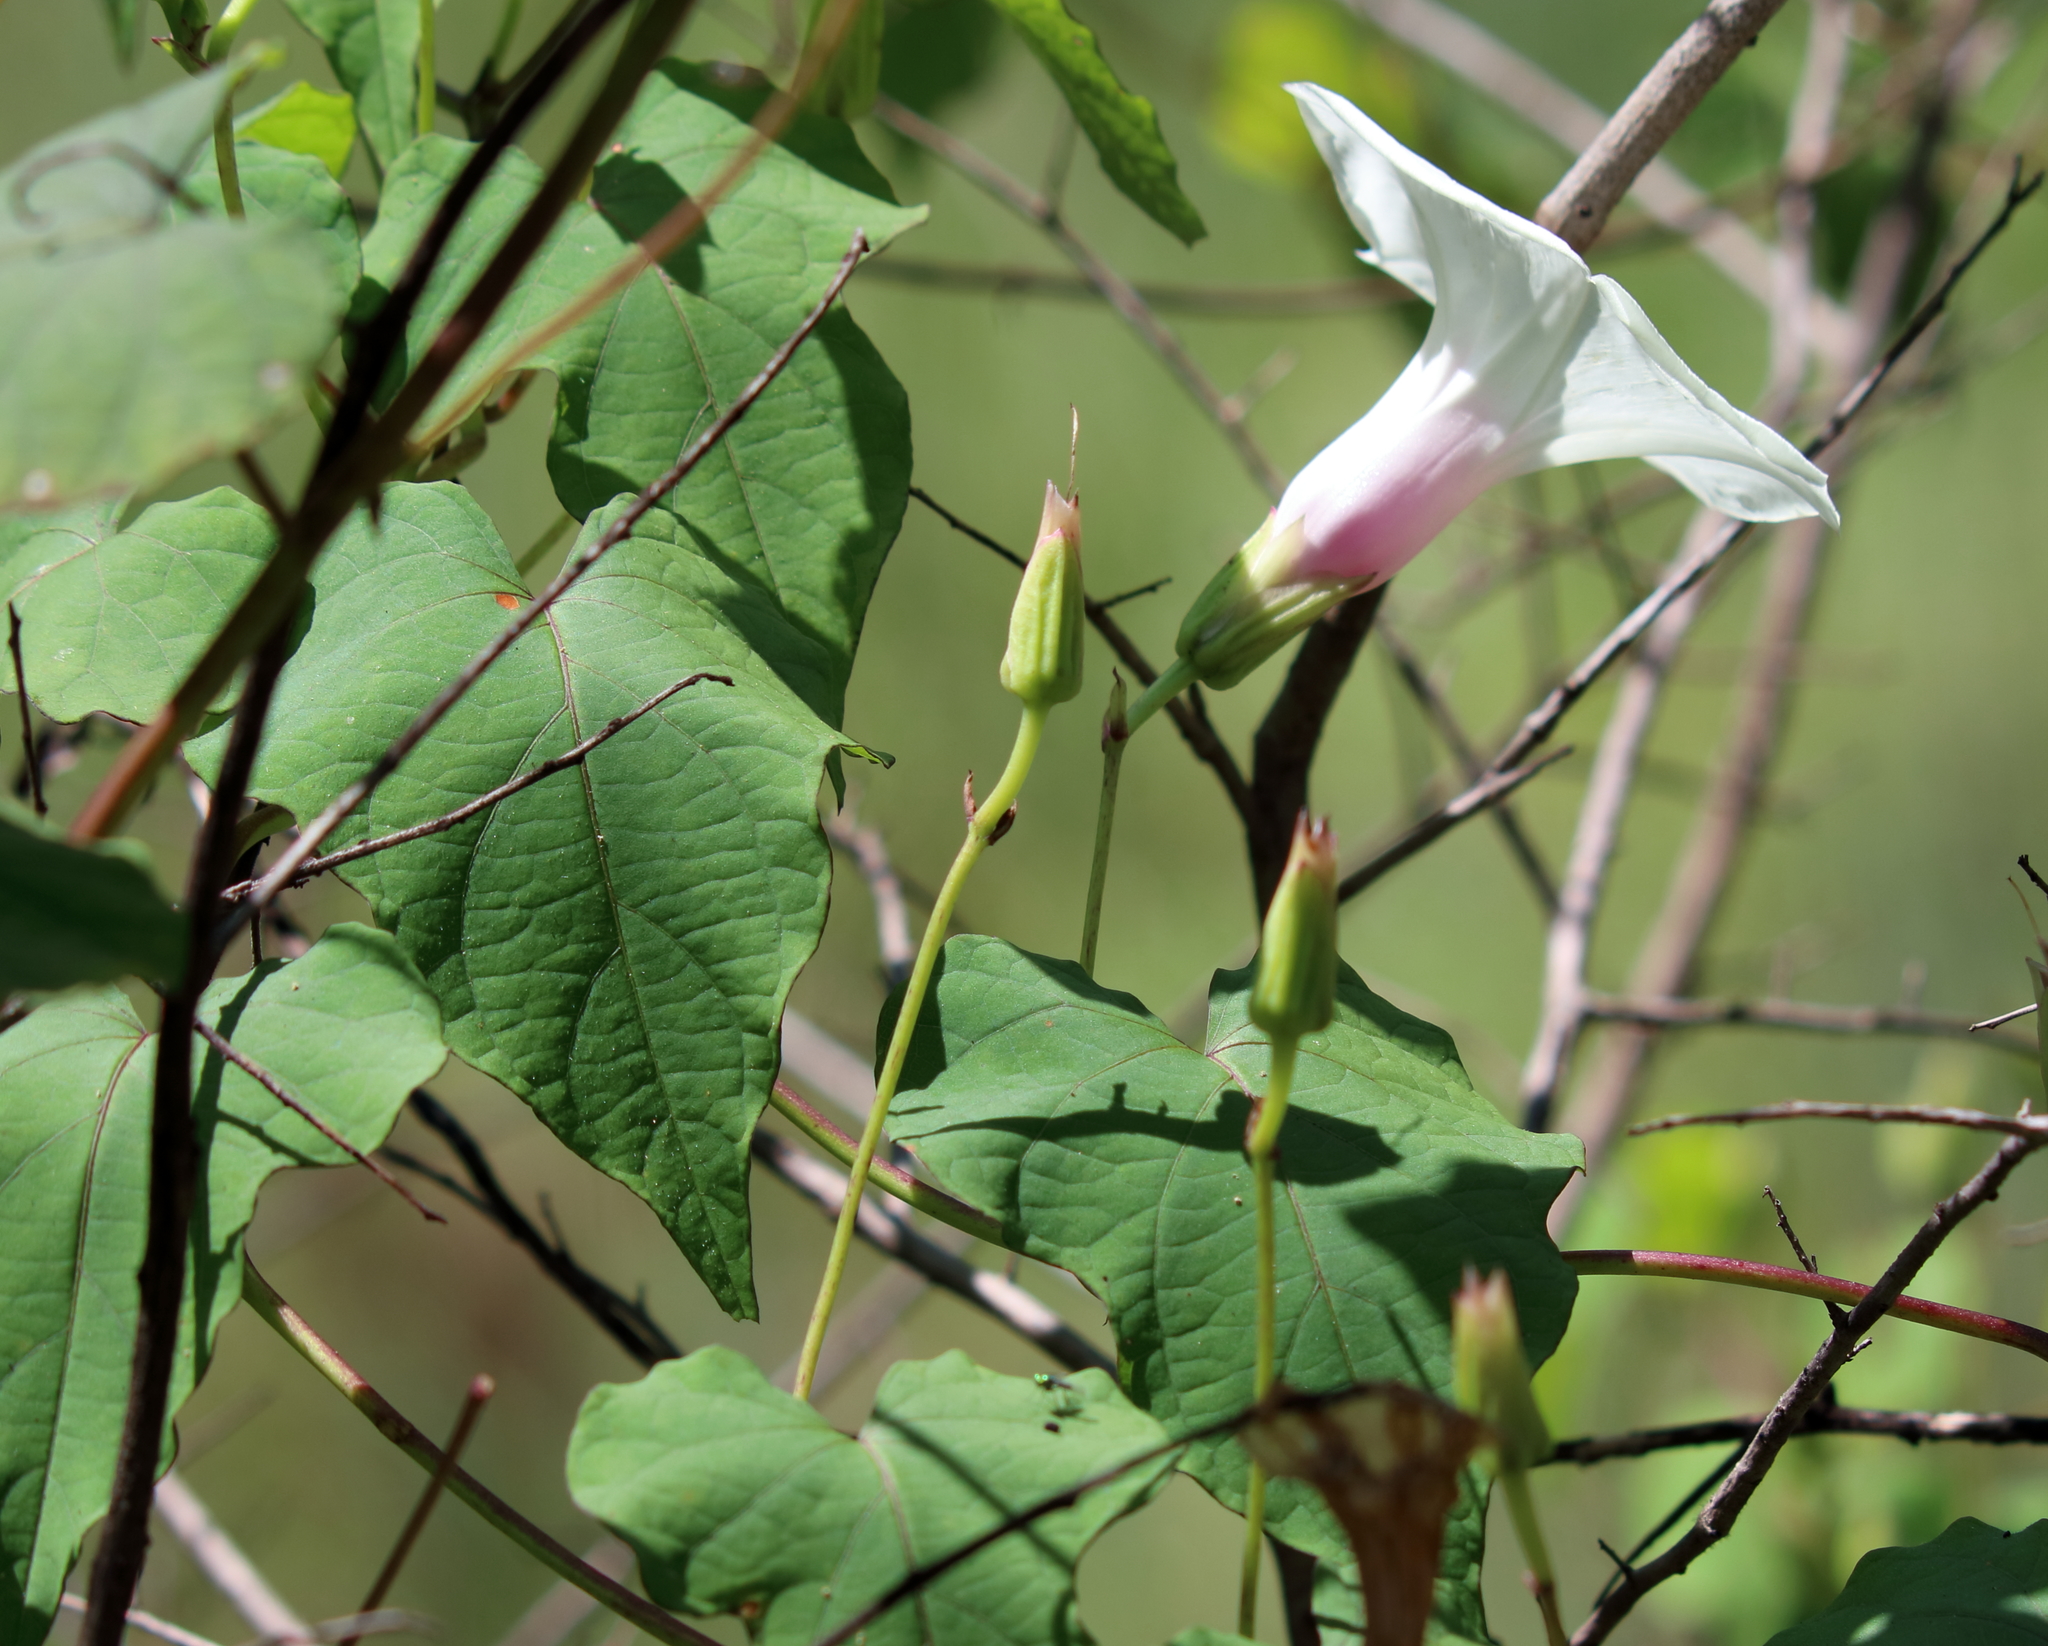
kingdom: Plantae
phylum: Tracheophyta
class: Magnoliopsida
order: Solanales
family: Convolvulaceae
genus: Ipomoea
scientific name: Ipomoea pandurata
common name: Man-of-the-earth
